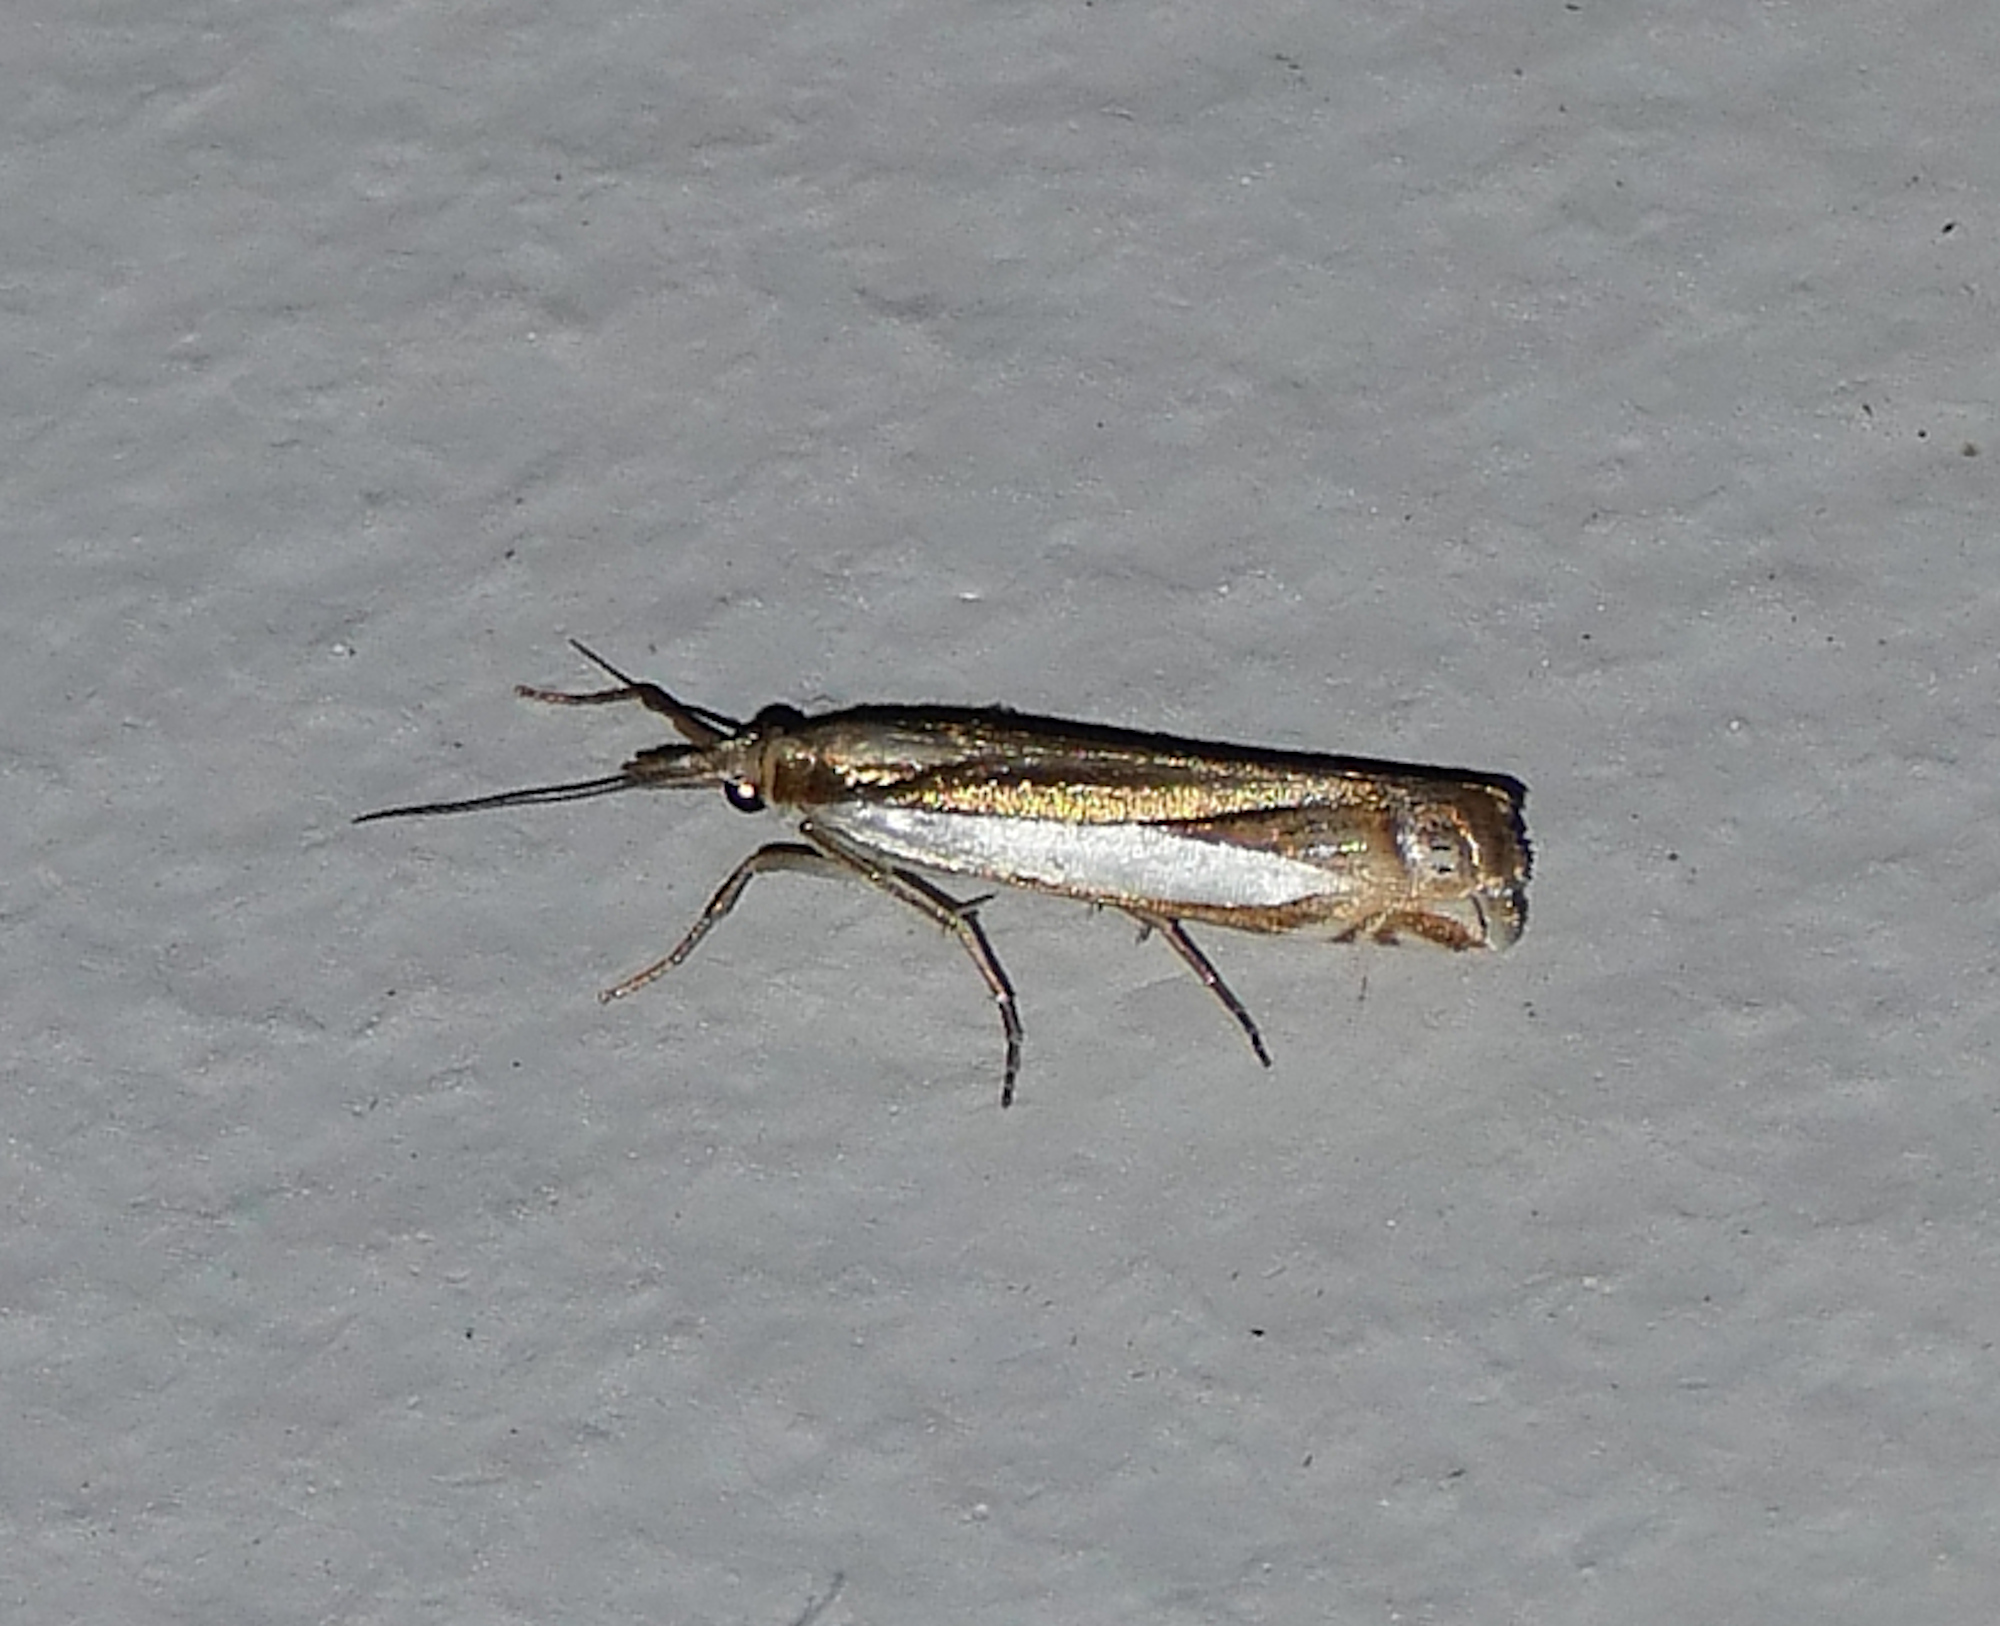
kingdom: Animalia
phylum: Arthropoda
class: Insecta
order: Lepidoptera
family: Crambidae
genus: Crambus
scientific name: Crambus cyrilellus
